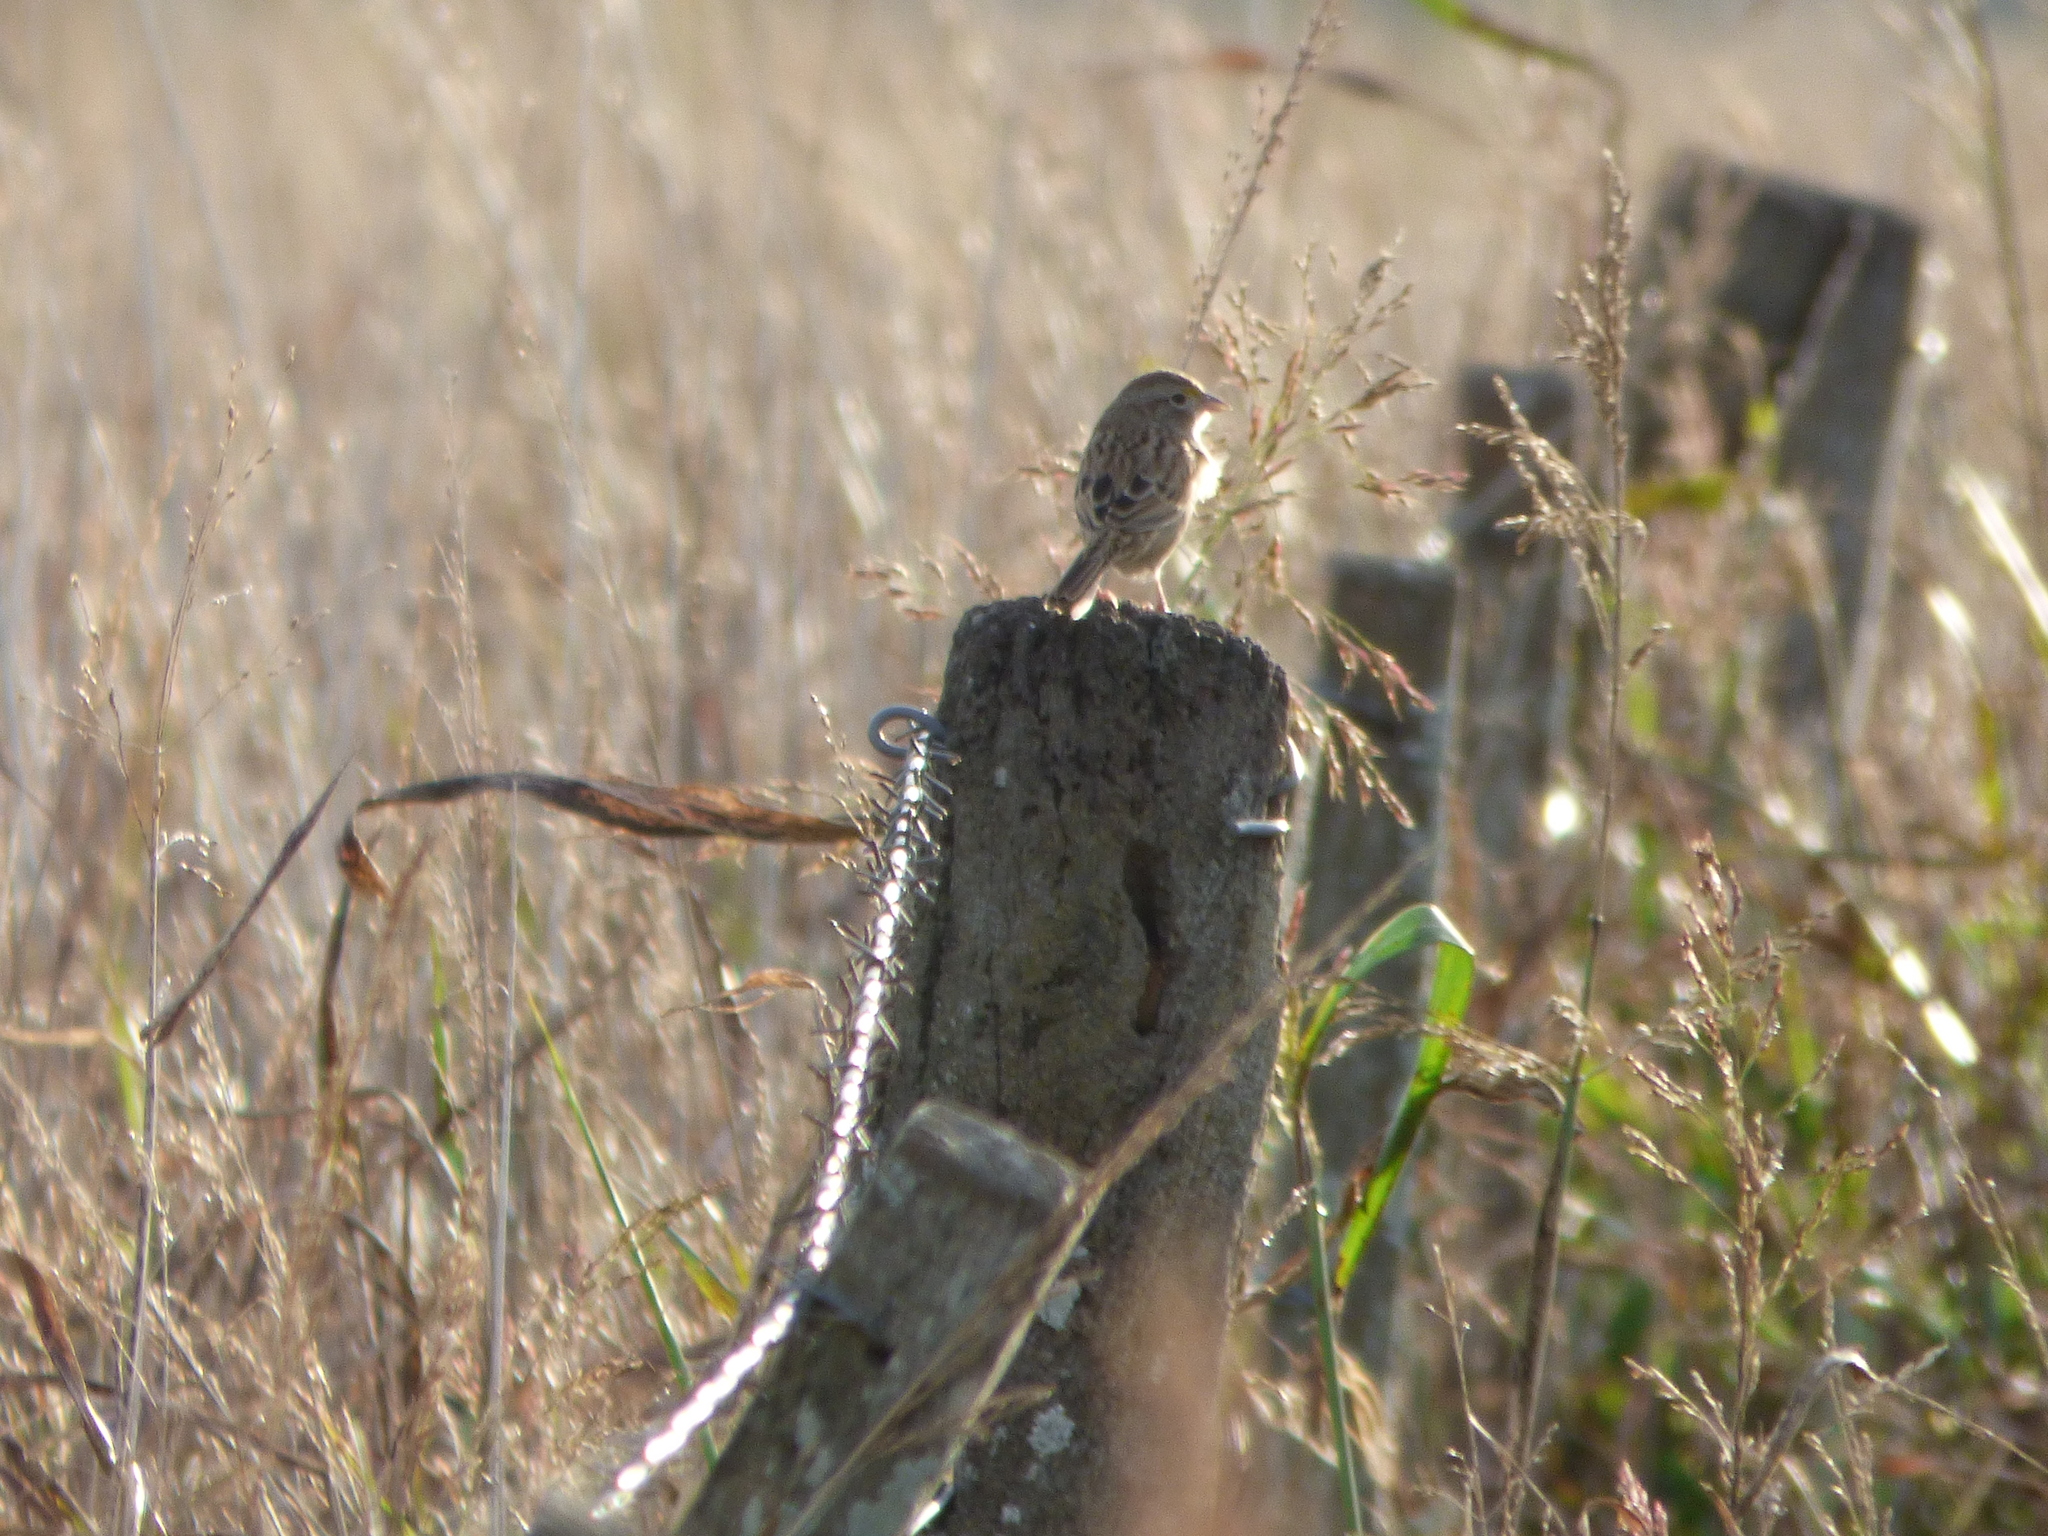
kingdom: Animalia
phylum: Chordata
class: Aves
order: Passeriformes
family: Passerellidae
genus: Ammodramus
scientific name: Ammodramus humeralis
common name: Grassland sparrow
